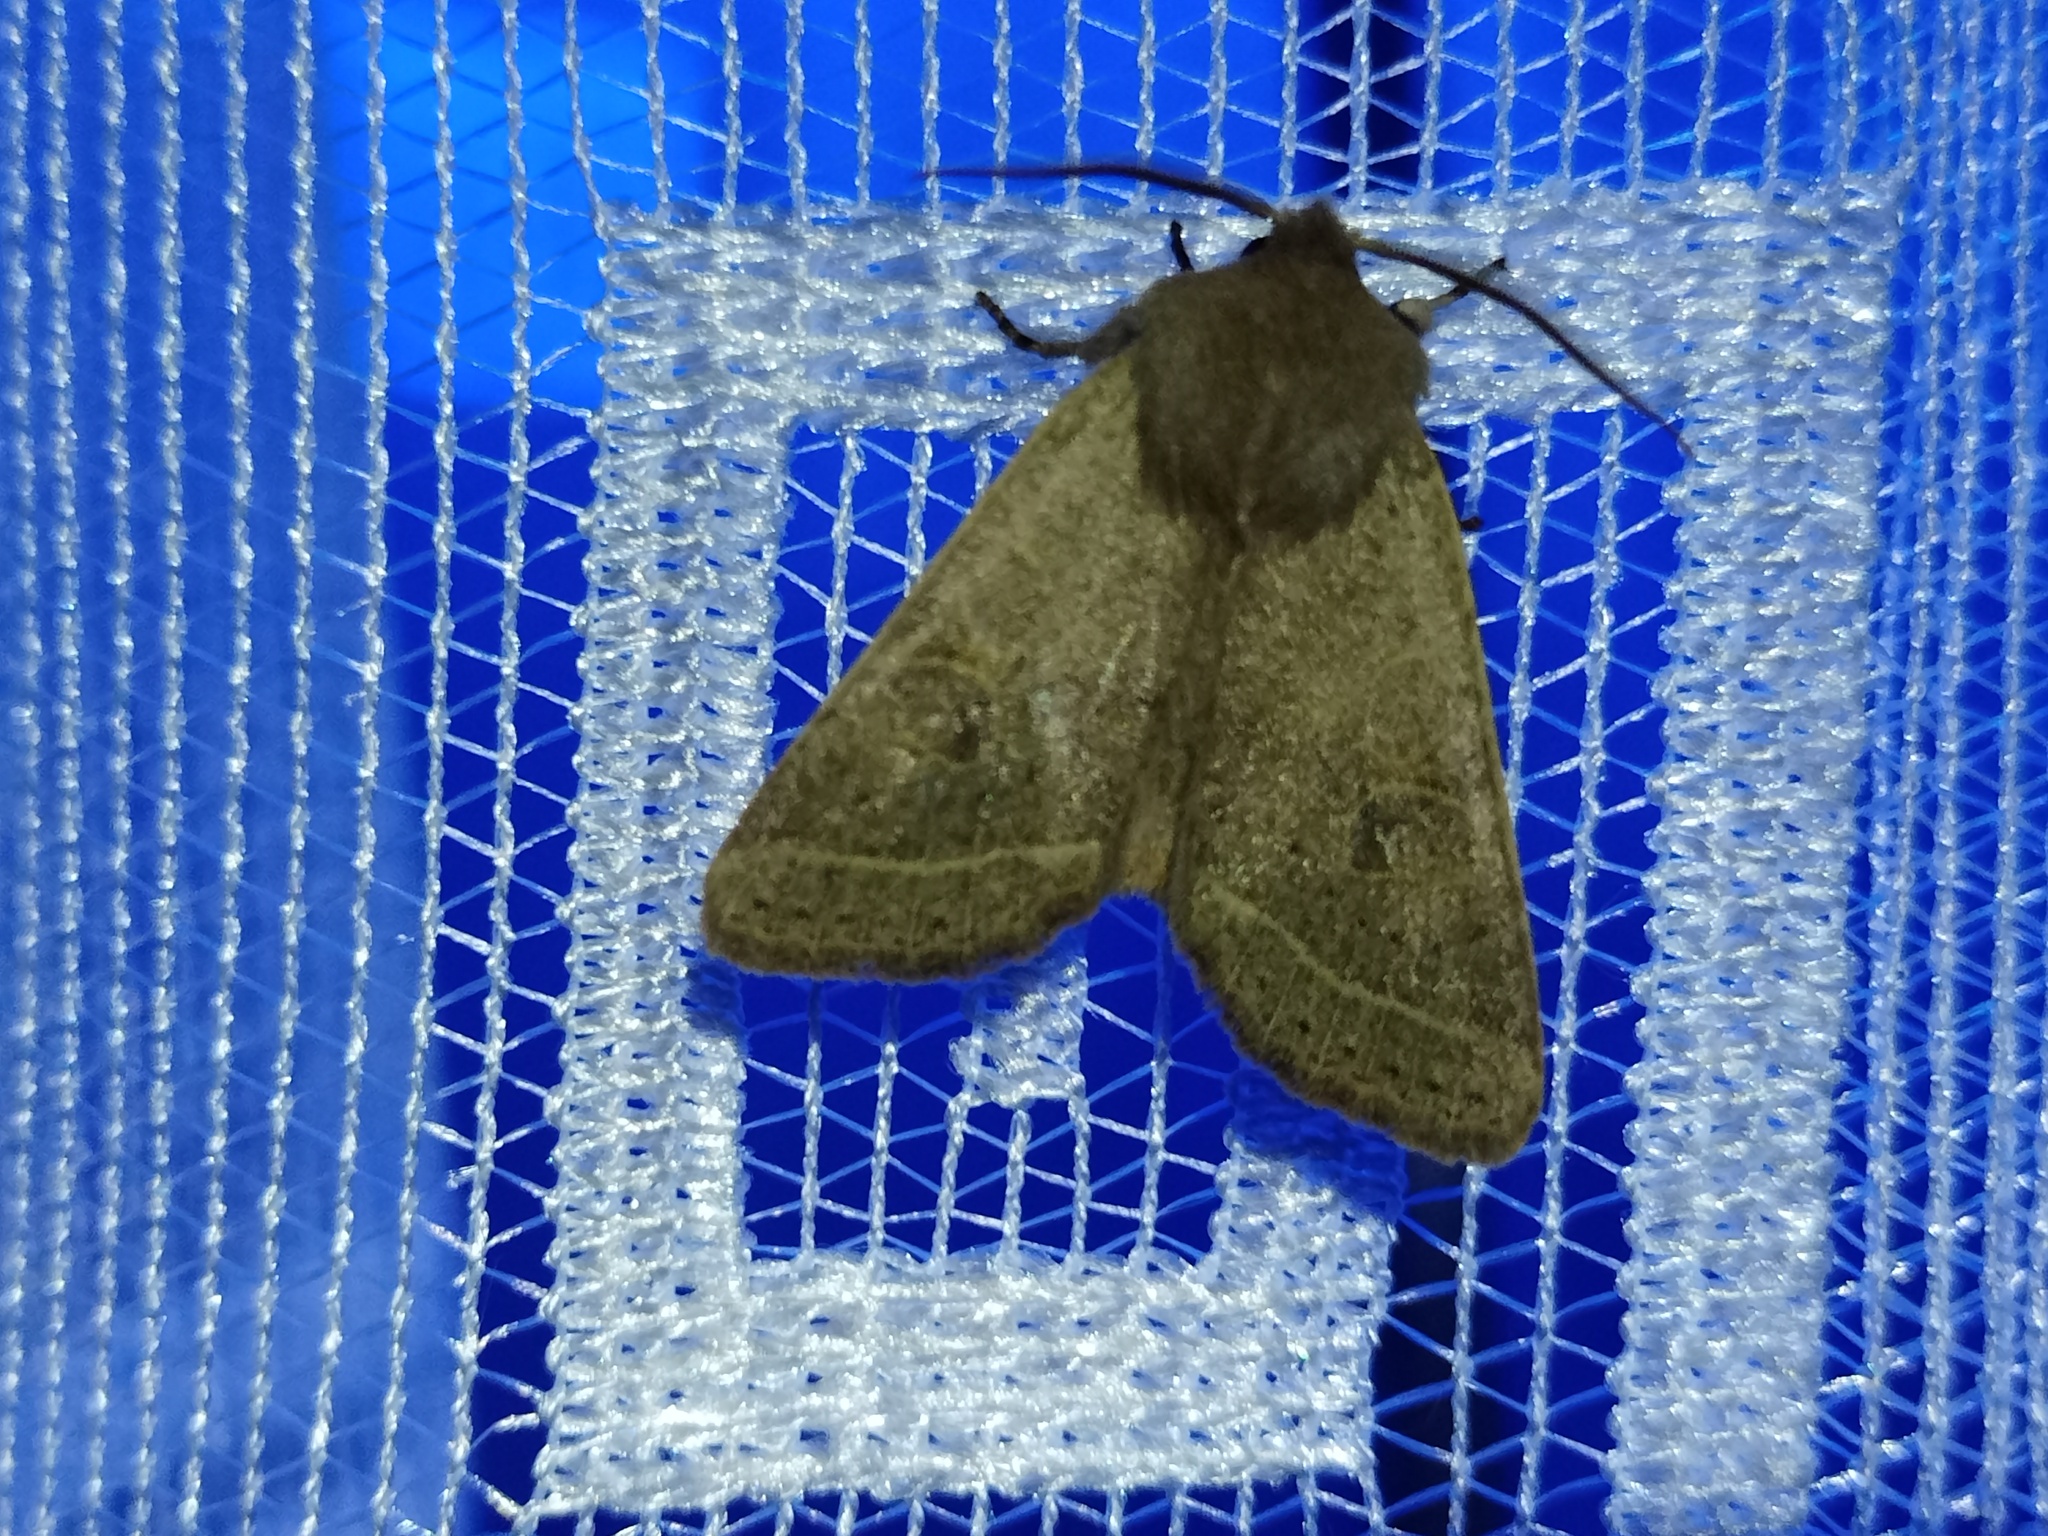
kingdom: Animalia
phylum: Arthropoda
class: Insecta
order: Lepidoptera
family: Noctuidae
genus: Orthosia
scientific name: Orthosia cerasi
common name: Common quaker
